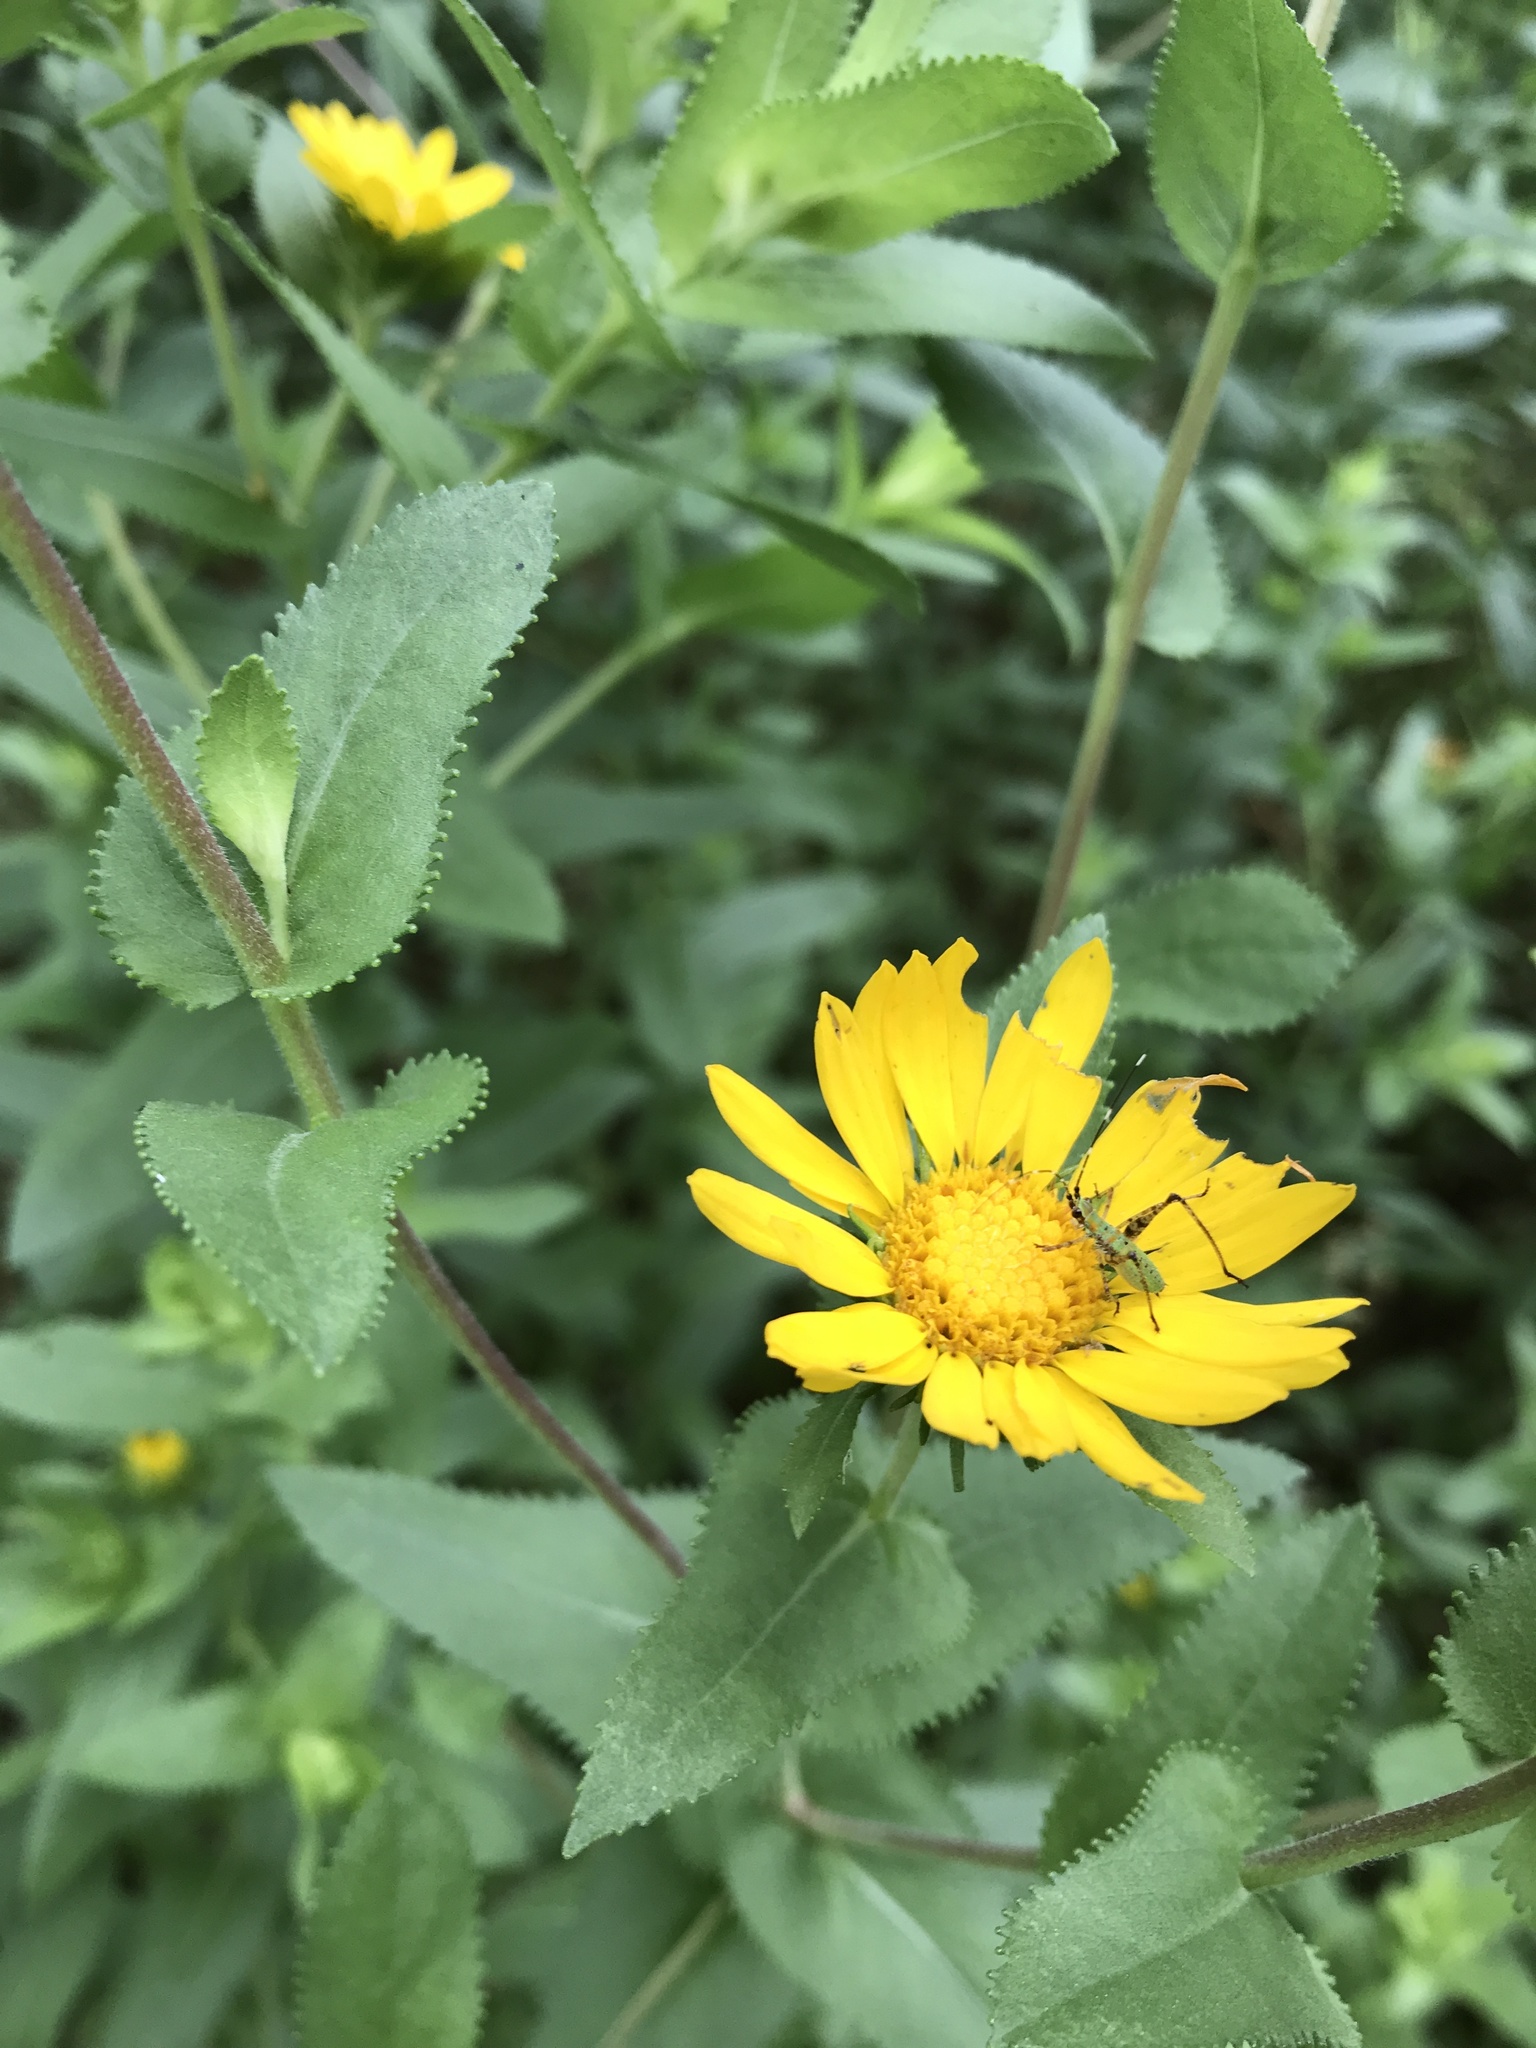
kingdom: Plantae
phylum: Tracheophyta
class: Magnoliopsida
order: Asterales
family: Asteraceae
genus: Grindelia
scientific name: Grindelia adenodonta
